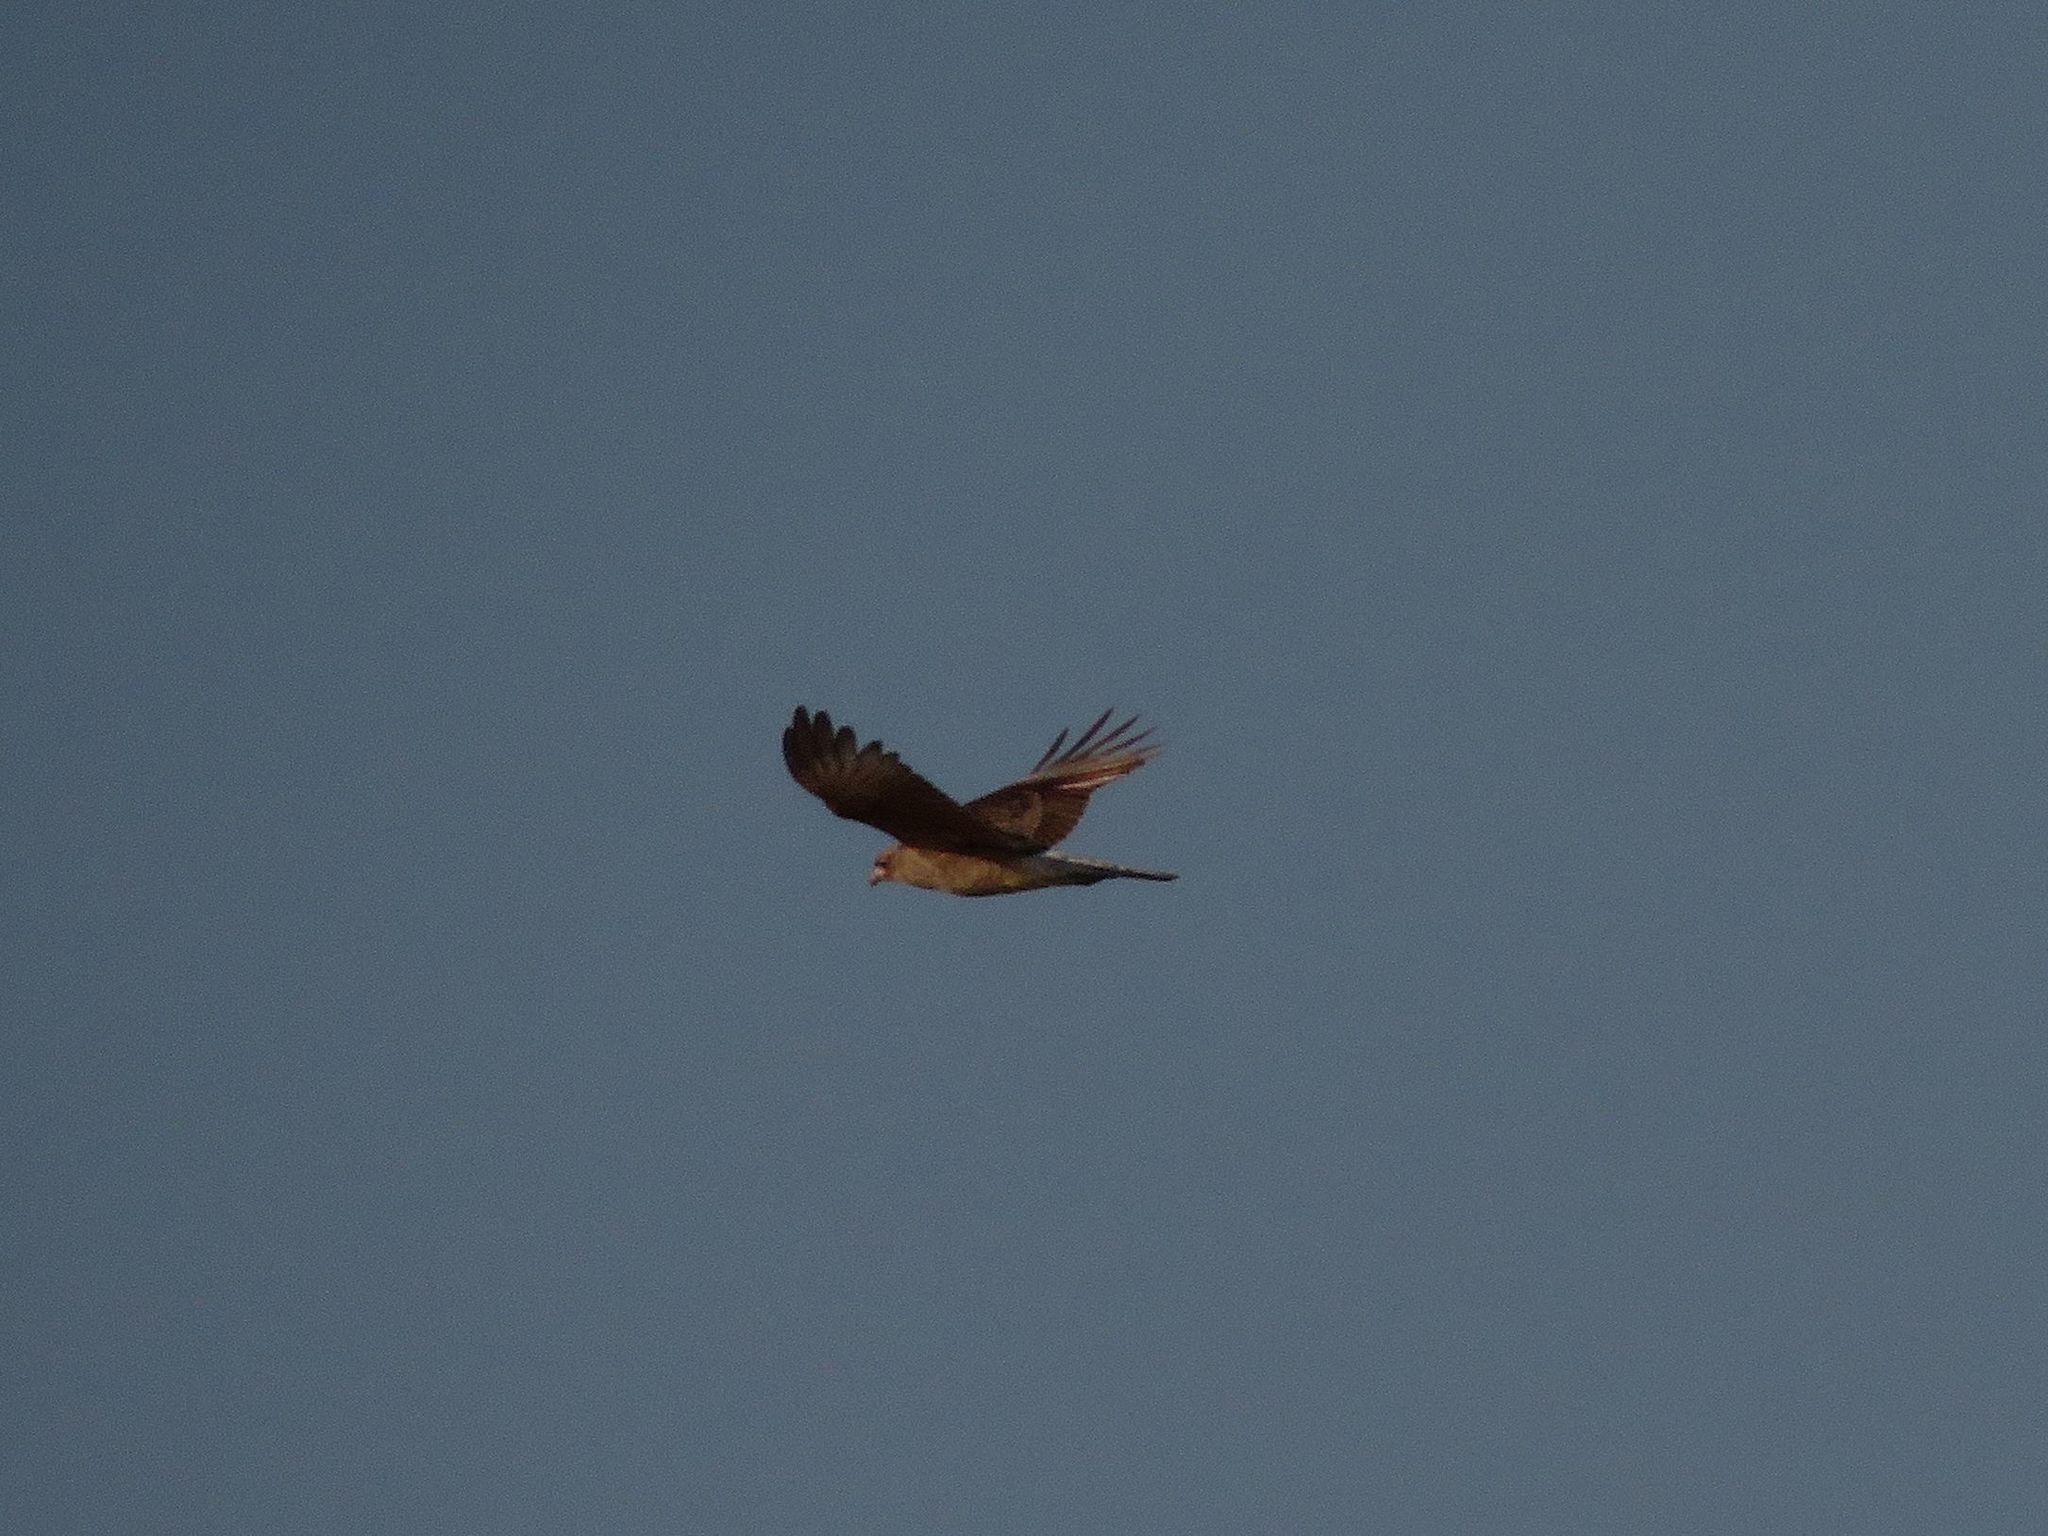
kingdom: Animalia
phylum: Chordata
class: Aves
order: Falconiformes
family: Falconidae
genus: Daptrius
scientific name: Daptrius
